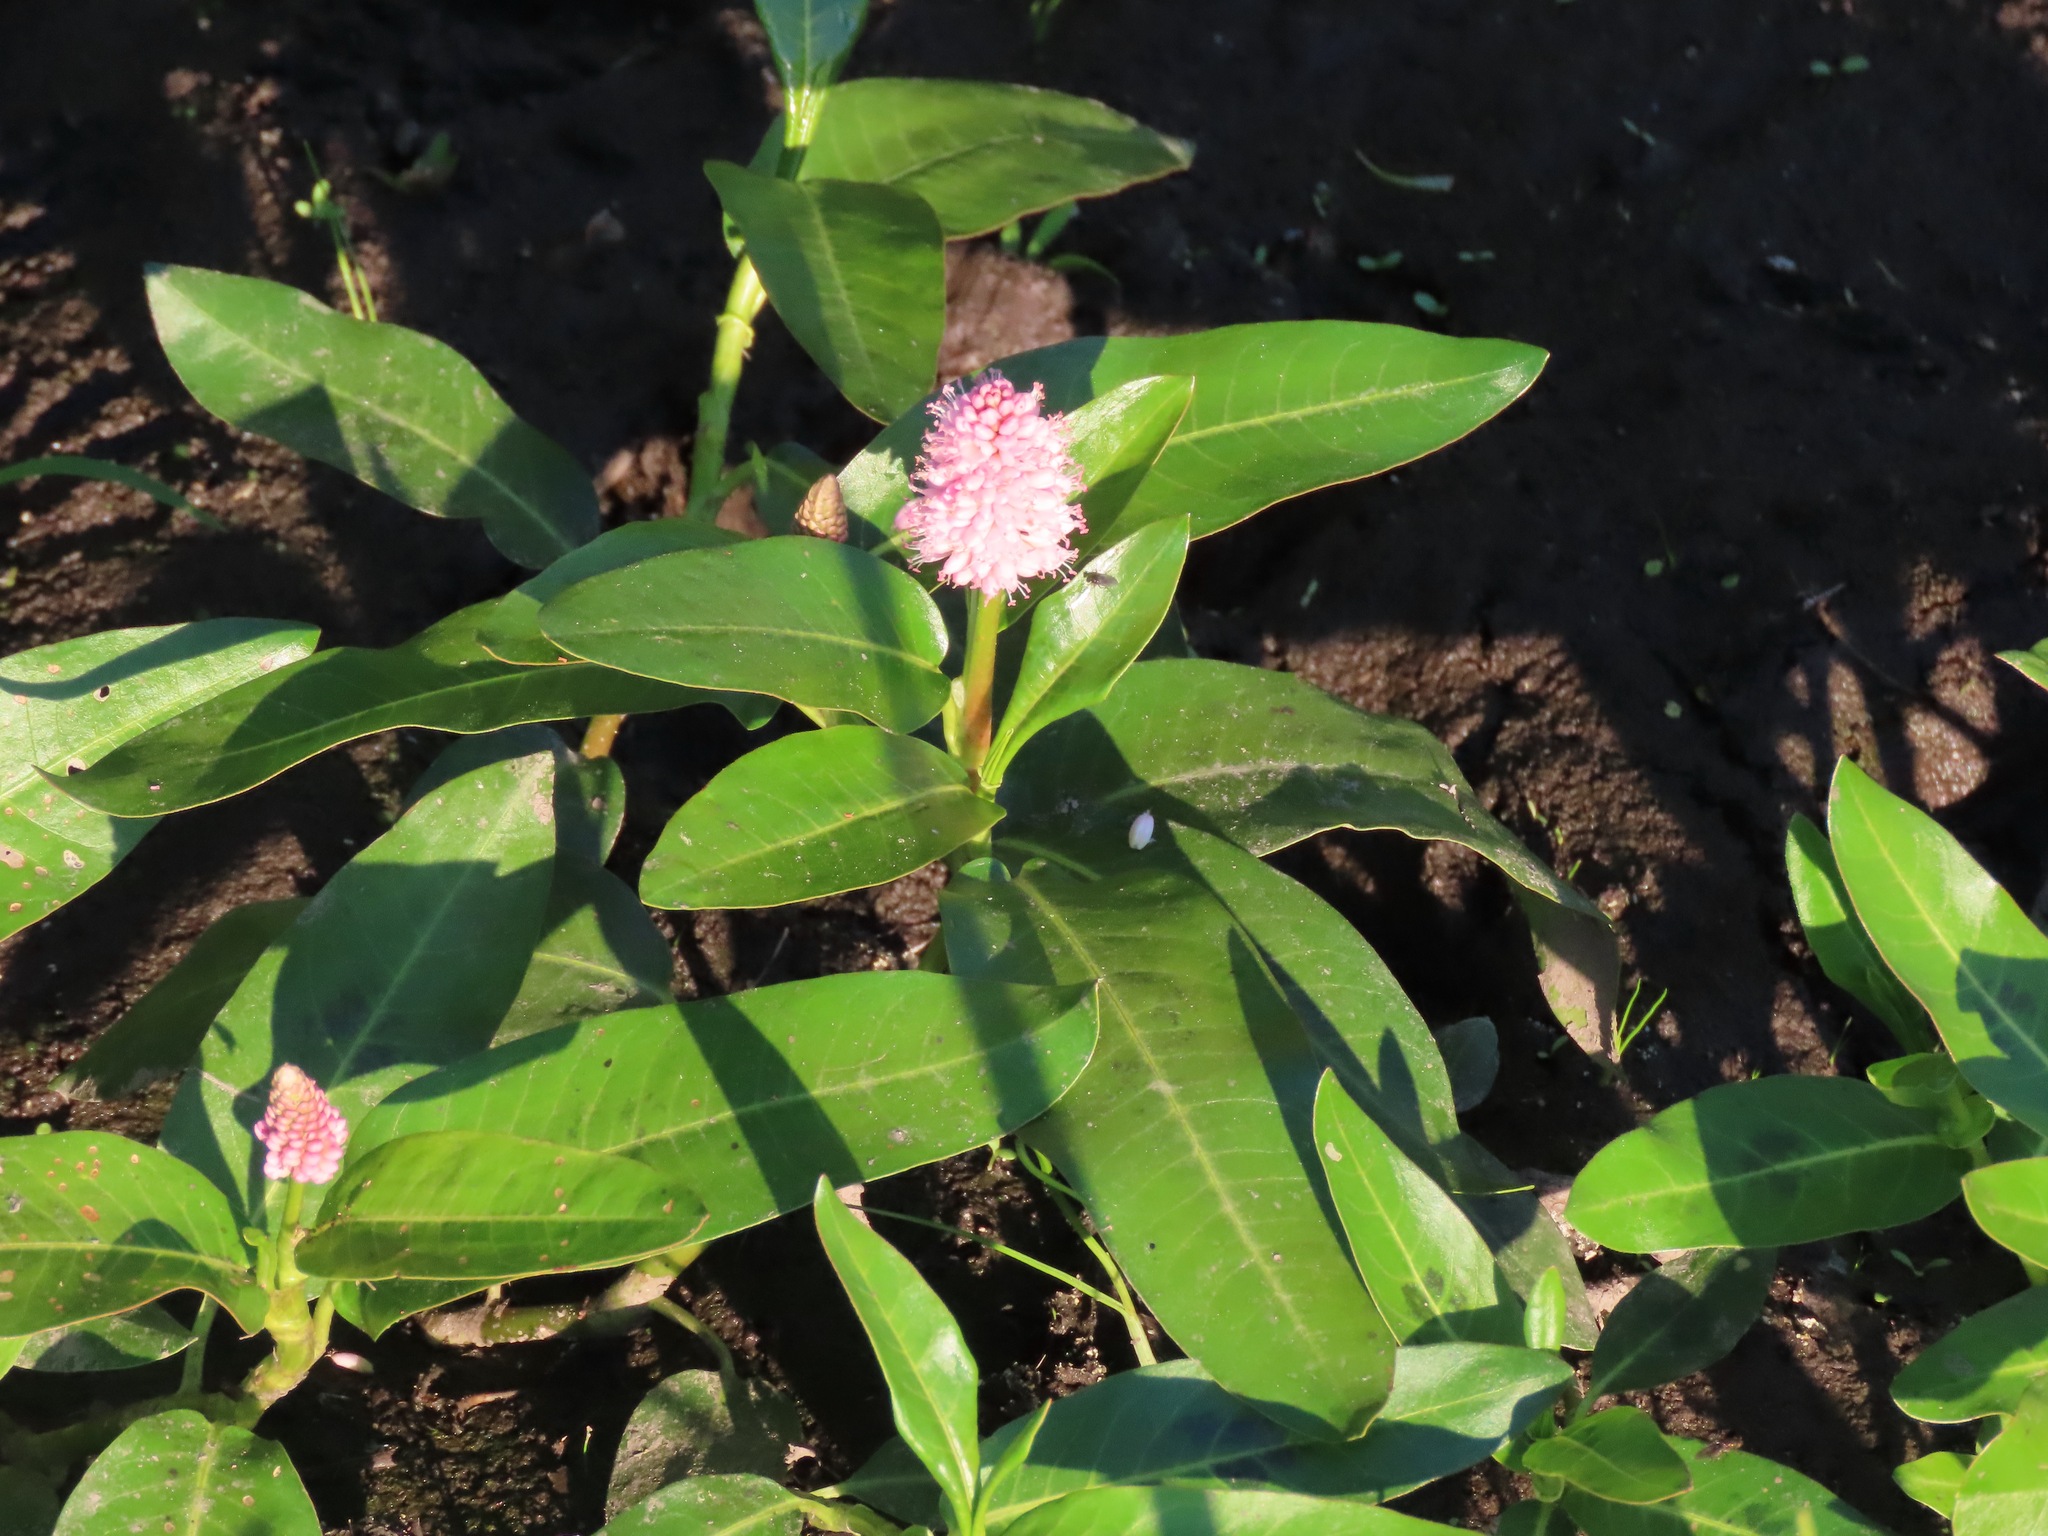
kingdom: Plantae
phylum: Tracheophyta
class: Magnoliopsida
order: Caryophyllales
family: Polygonaceae
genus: Persicaria
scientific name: Persicaria amphibia
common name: Amphibious bistort
